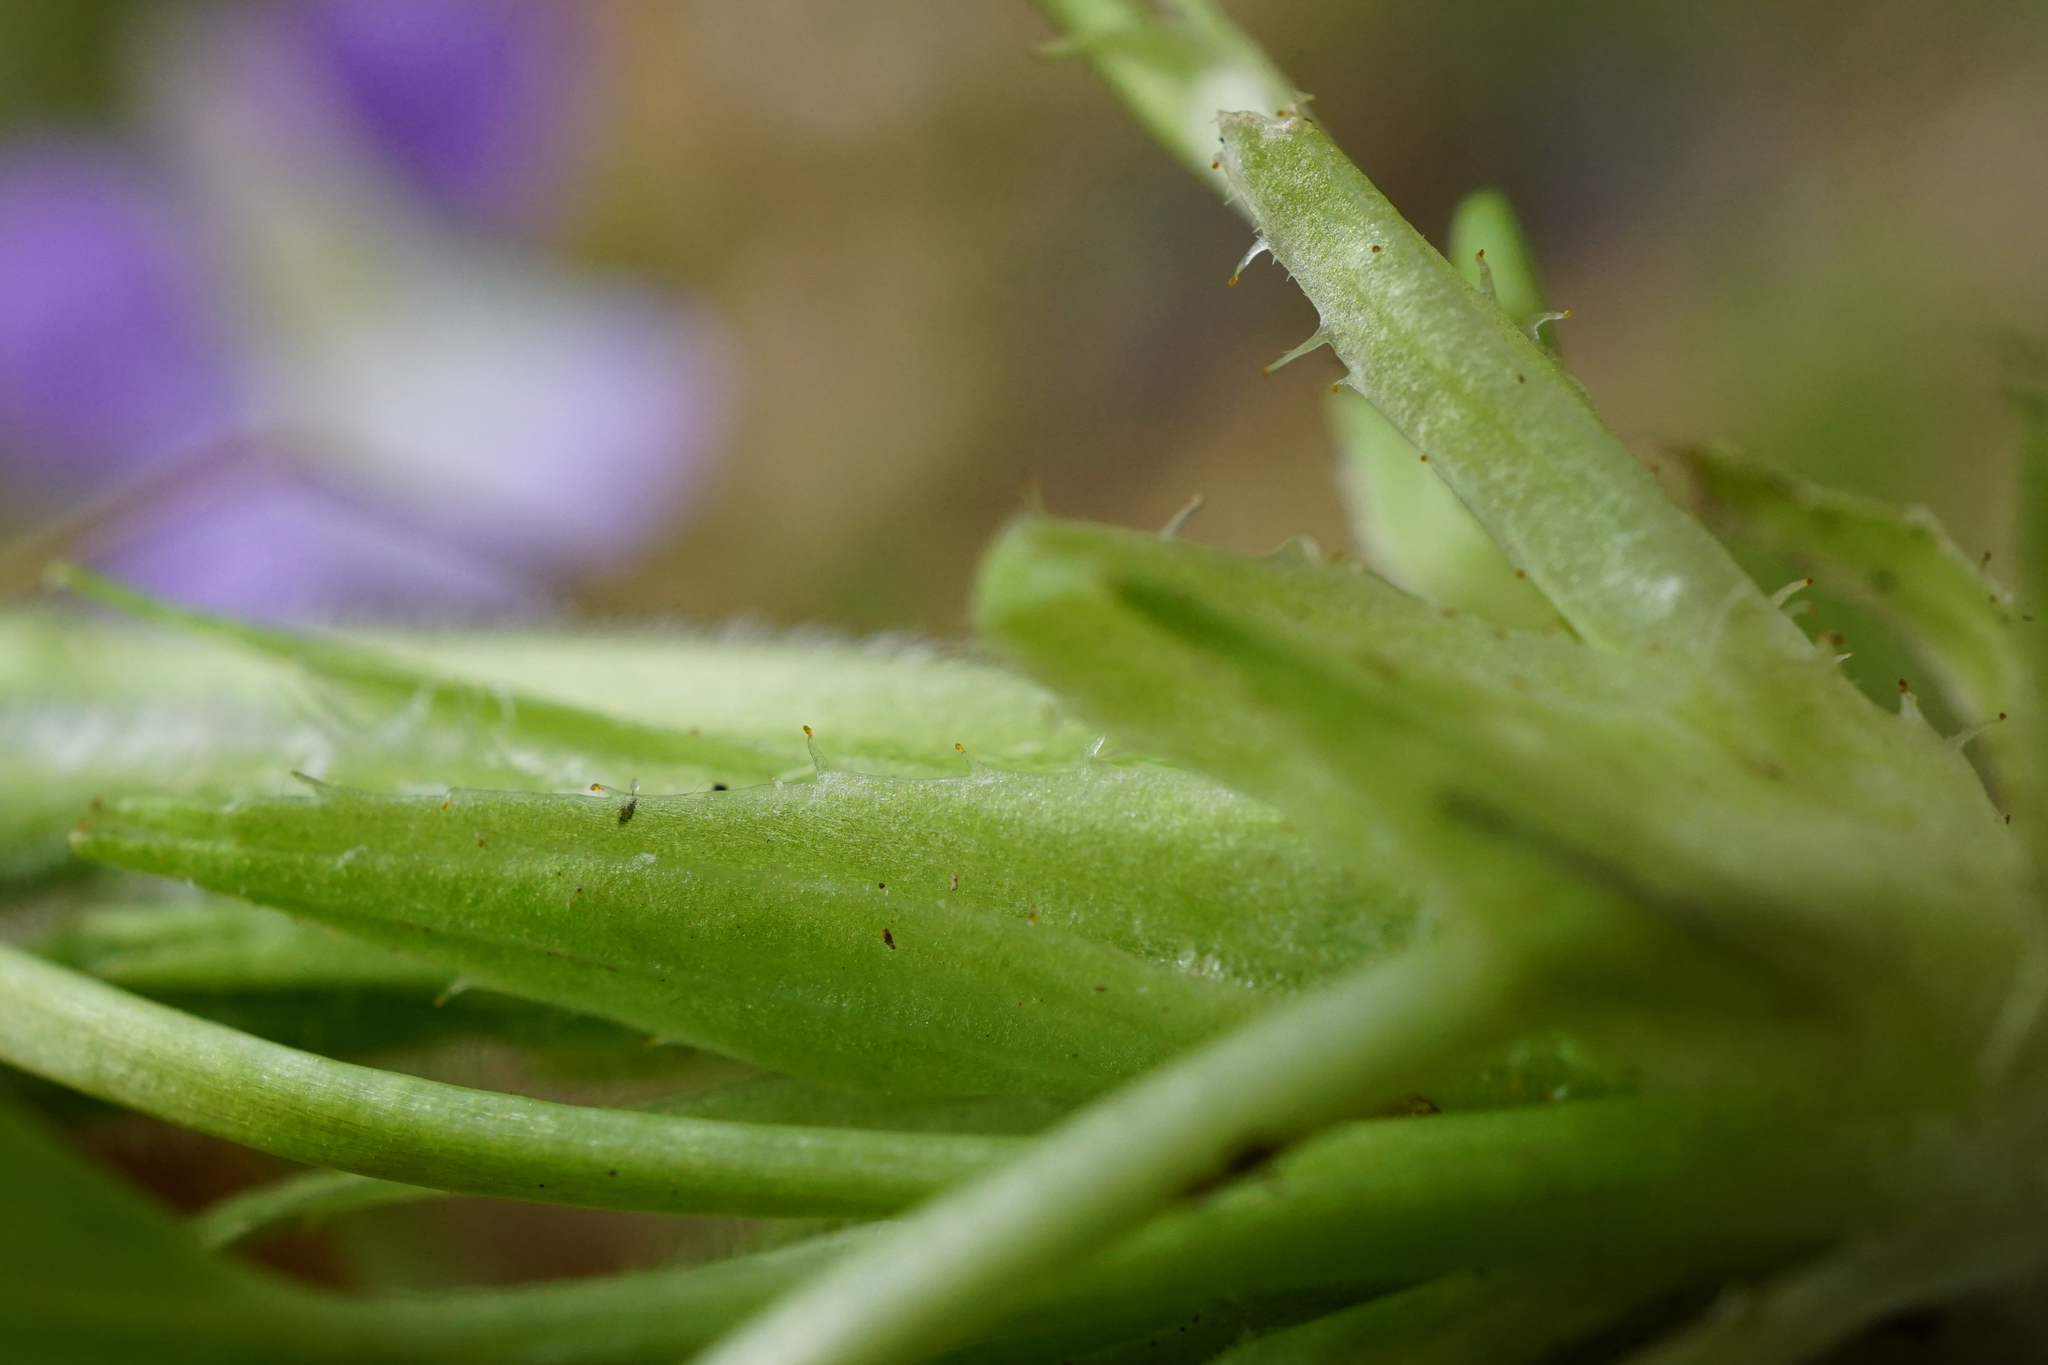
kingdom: Plantae
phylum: Tracheophyta
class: Magnoliopsida
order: Malpighiales
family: Violaceae
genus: Viola
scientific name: Viola hirta
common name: Hairy violet
